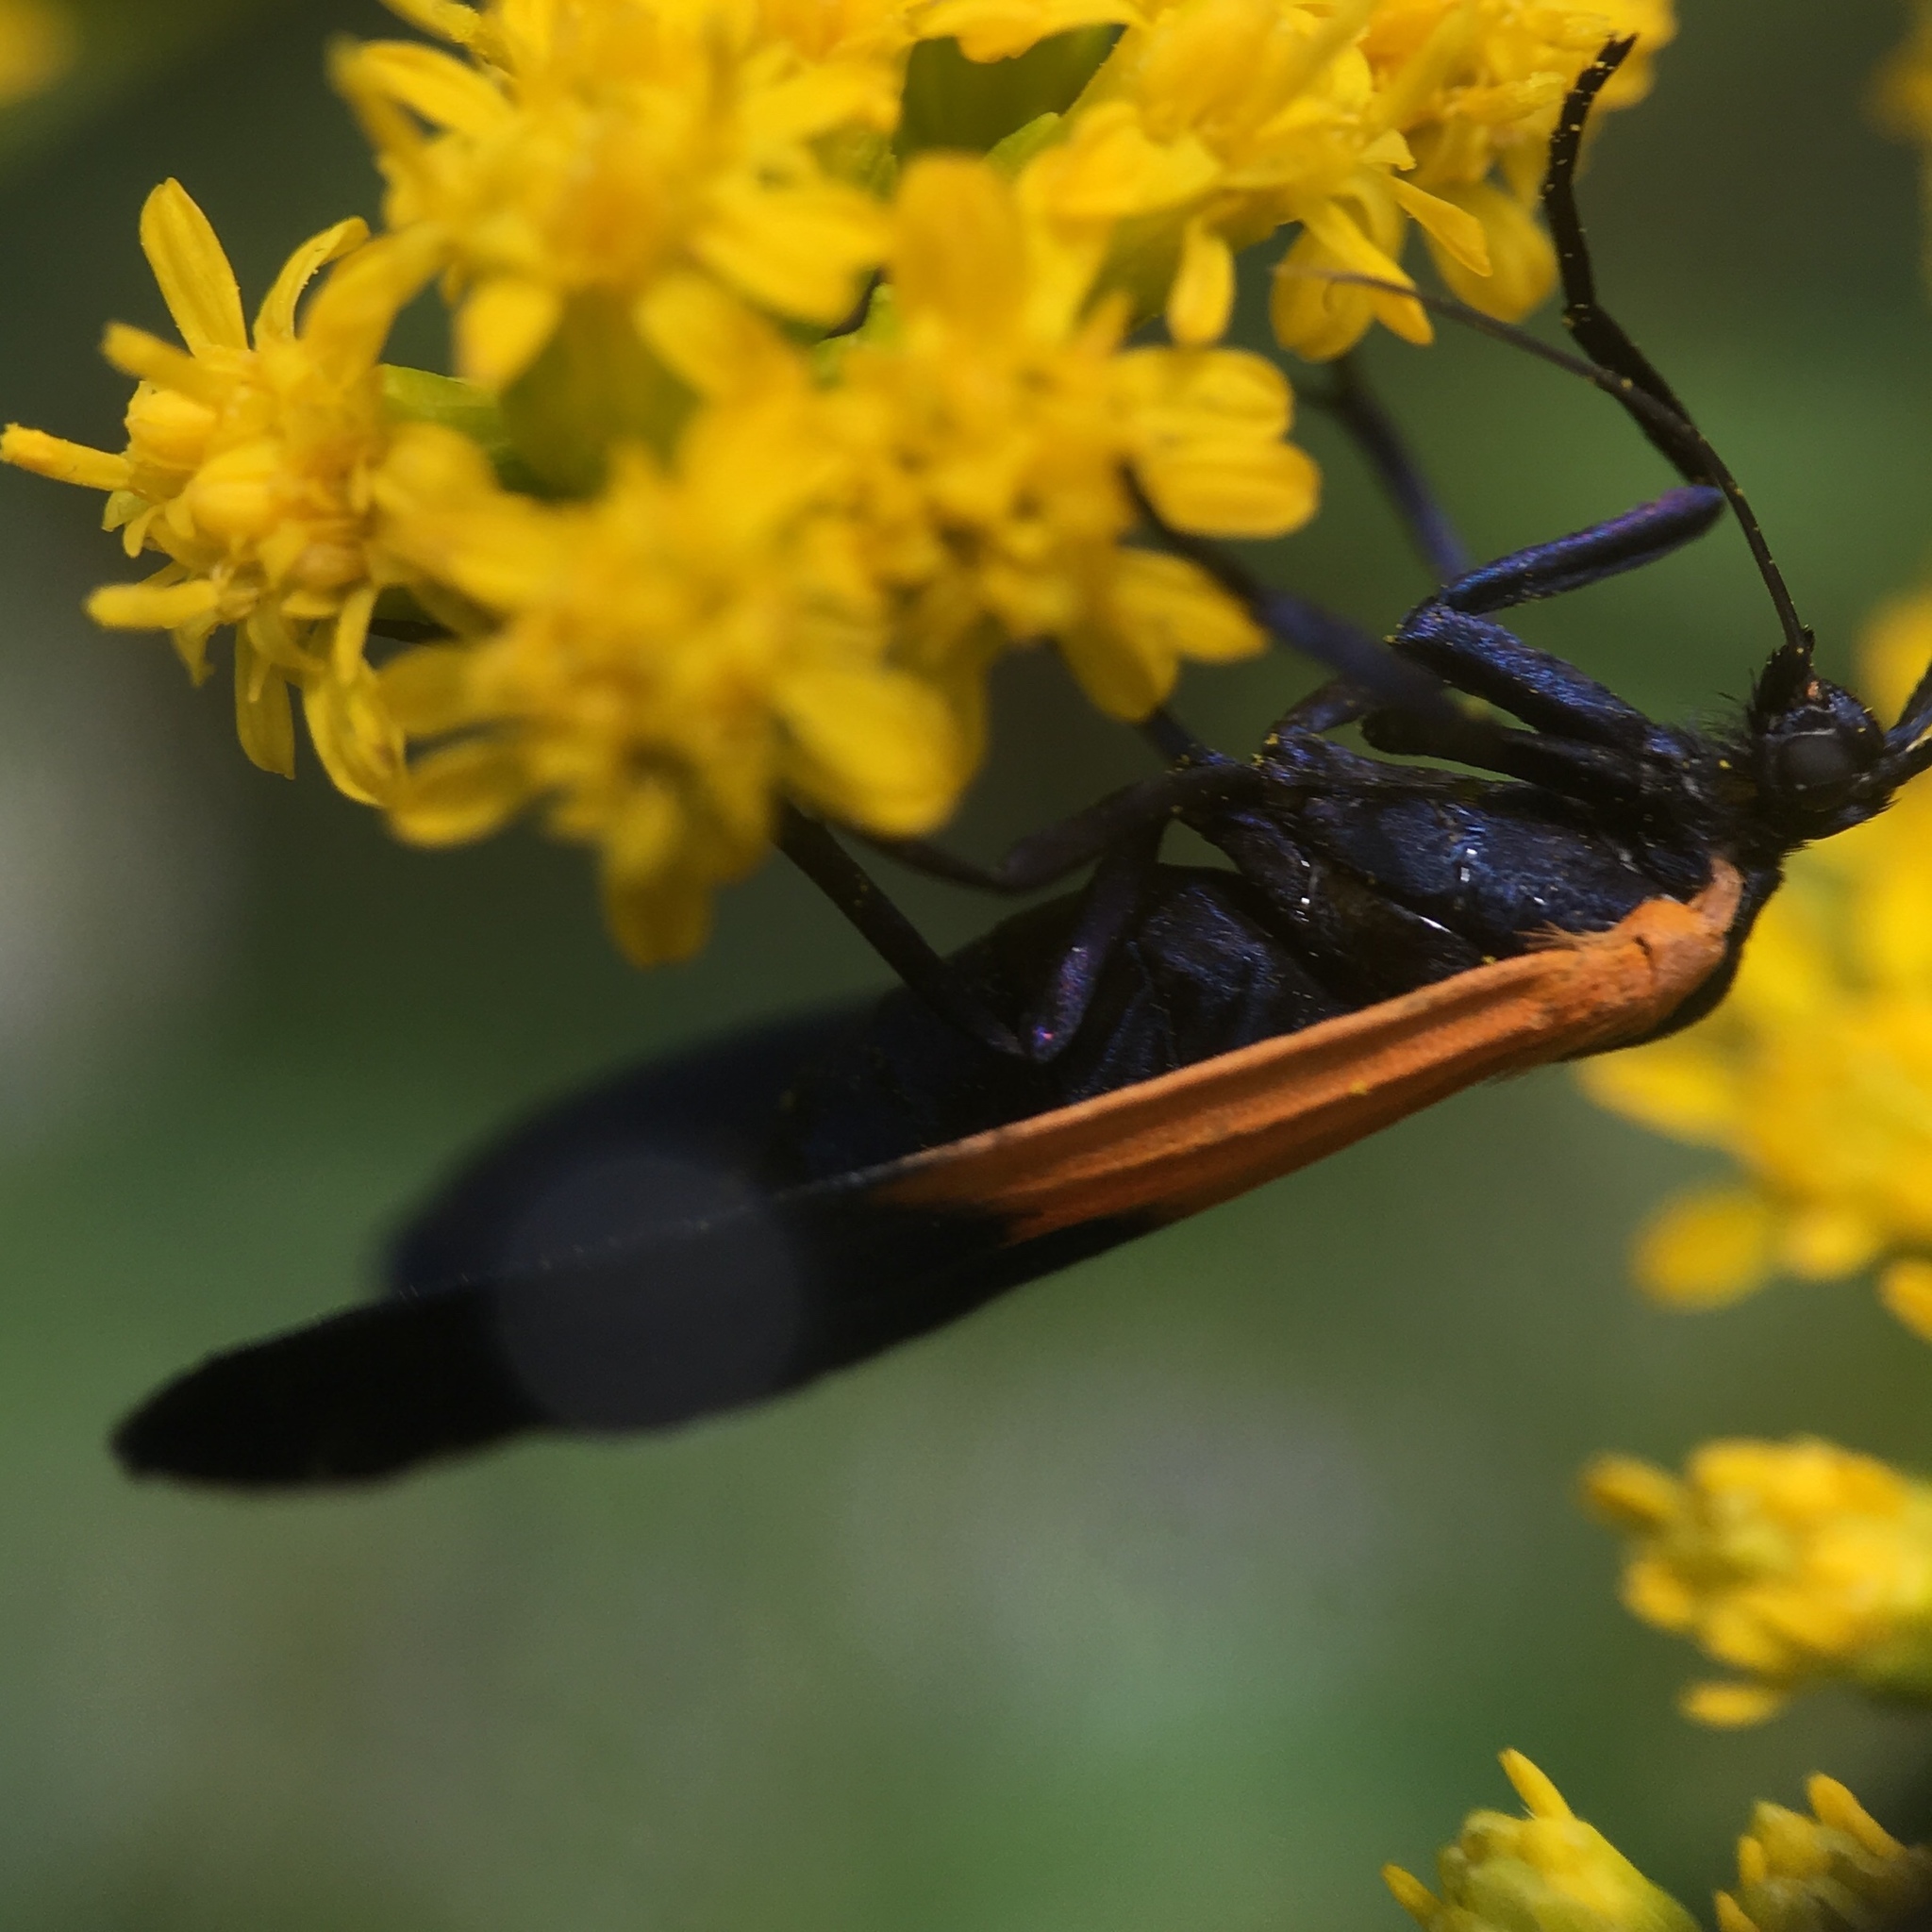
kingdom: Animalia
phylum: Arthropoda
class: Insecta
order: Lepidoptera
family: Erebidae
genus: Lycomorpha
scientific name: Lycomorpha pholus
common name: Black-and-yellow lichen moth
